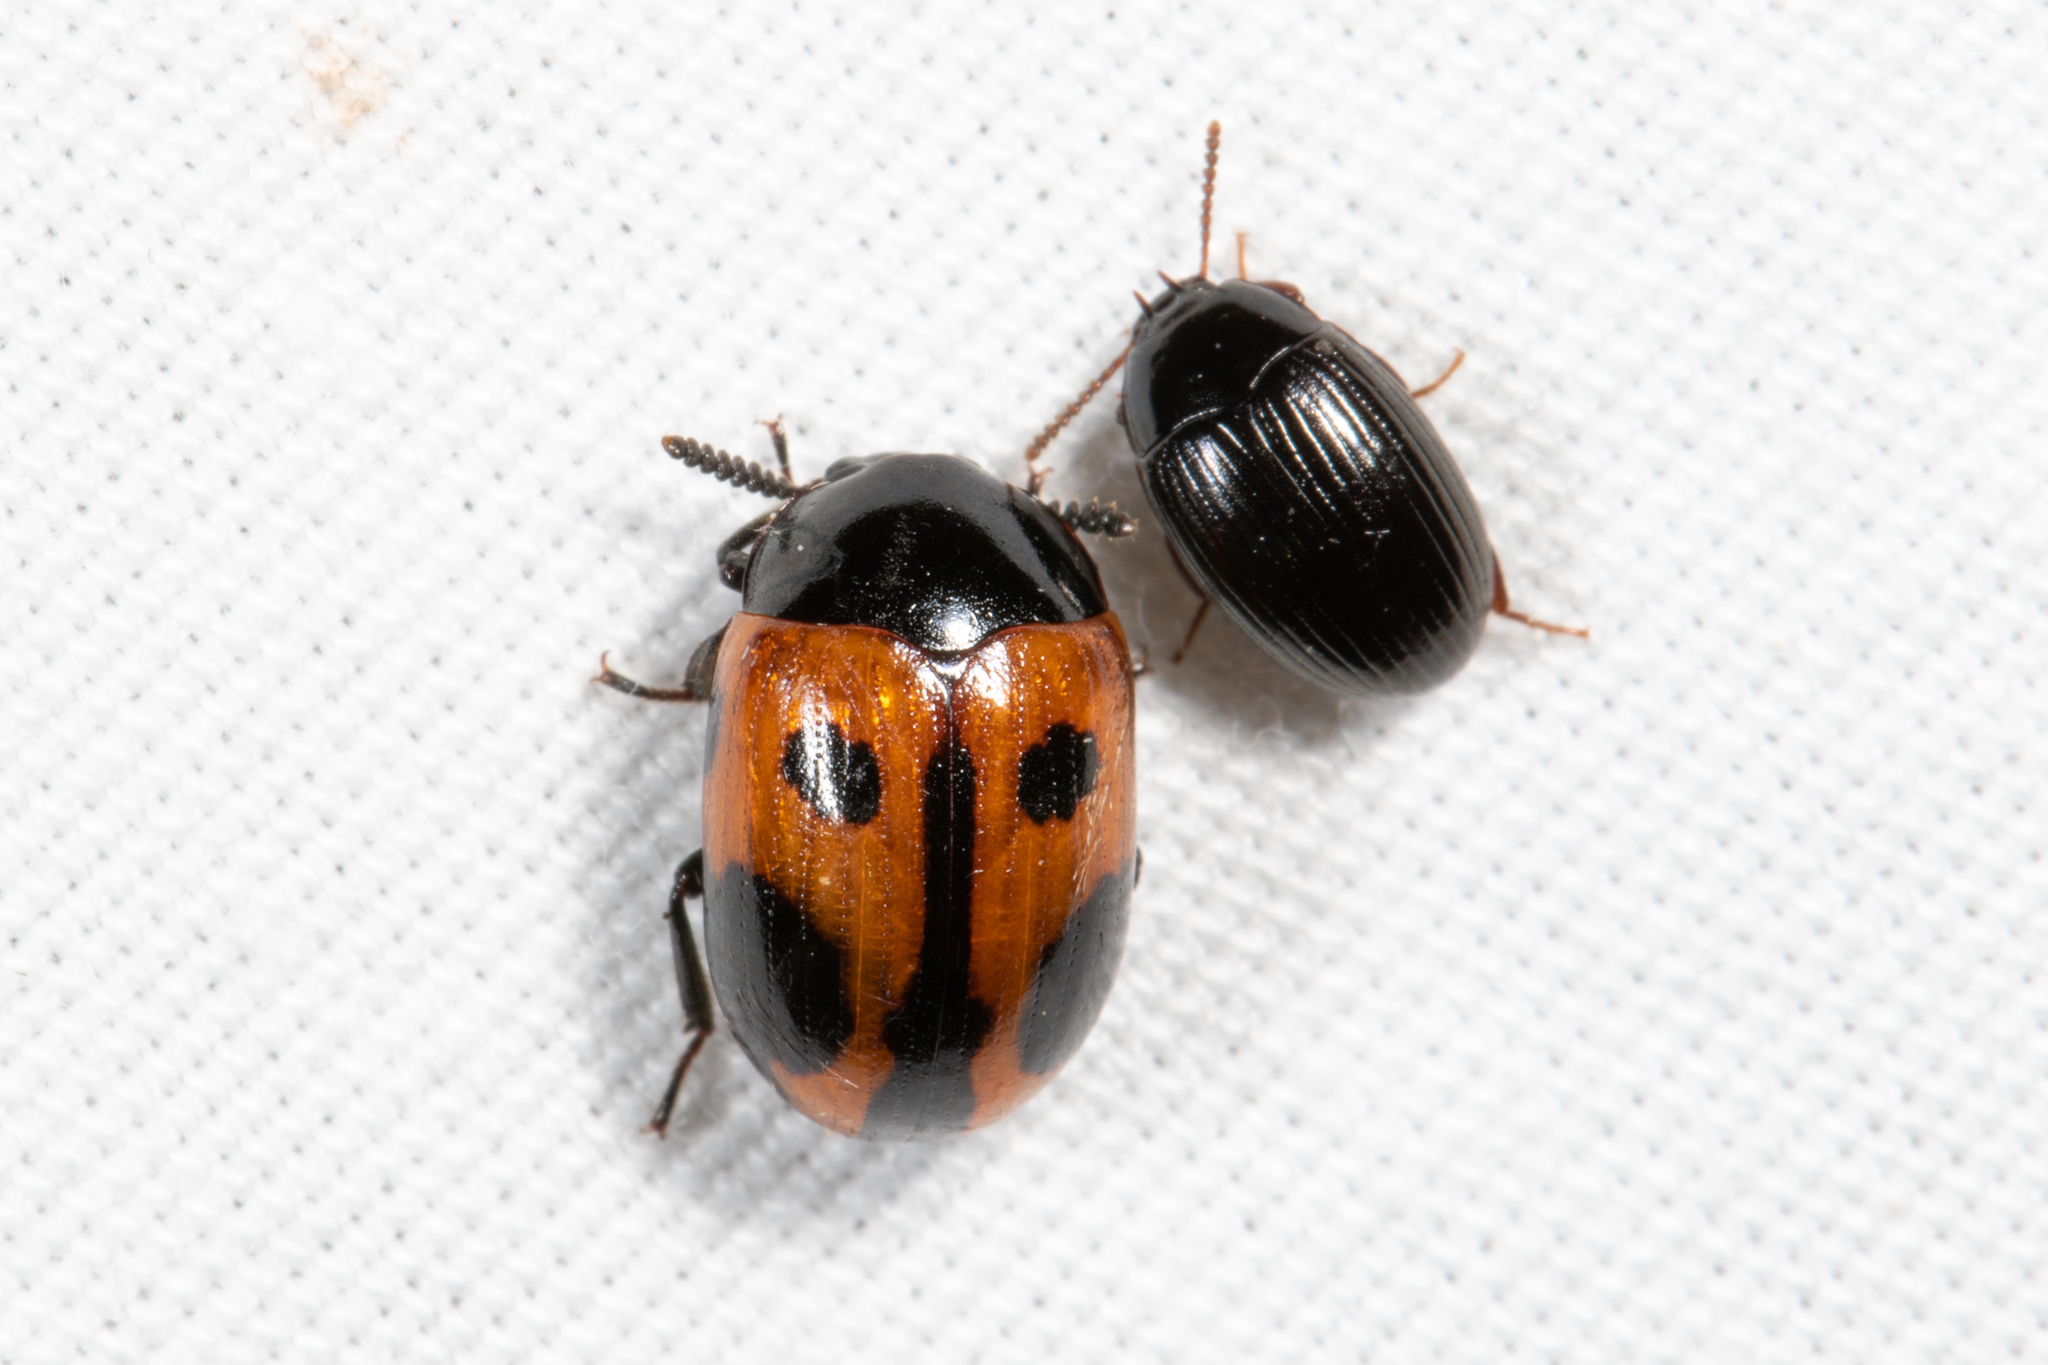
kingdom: Animalia
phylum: Arthropoda
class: Insecta
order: Coleoptera
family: Tenebrionidae
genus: Diaperis
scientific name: Diaperis maculata
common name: Darkling beetle
